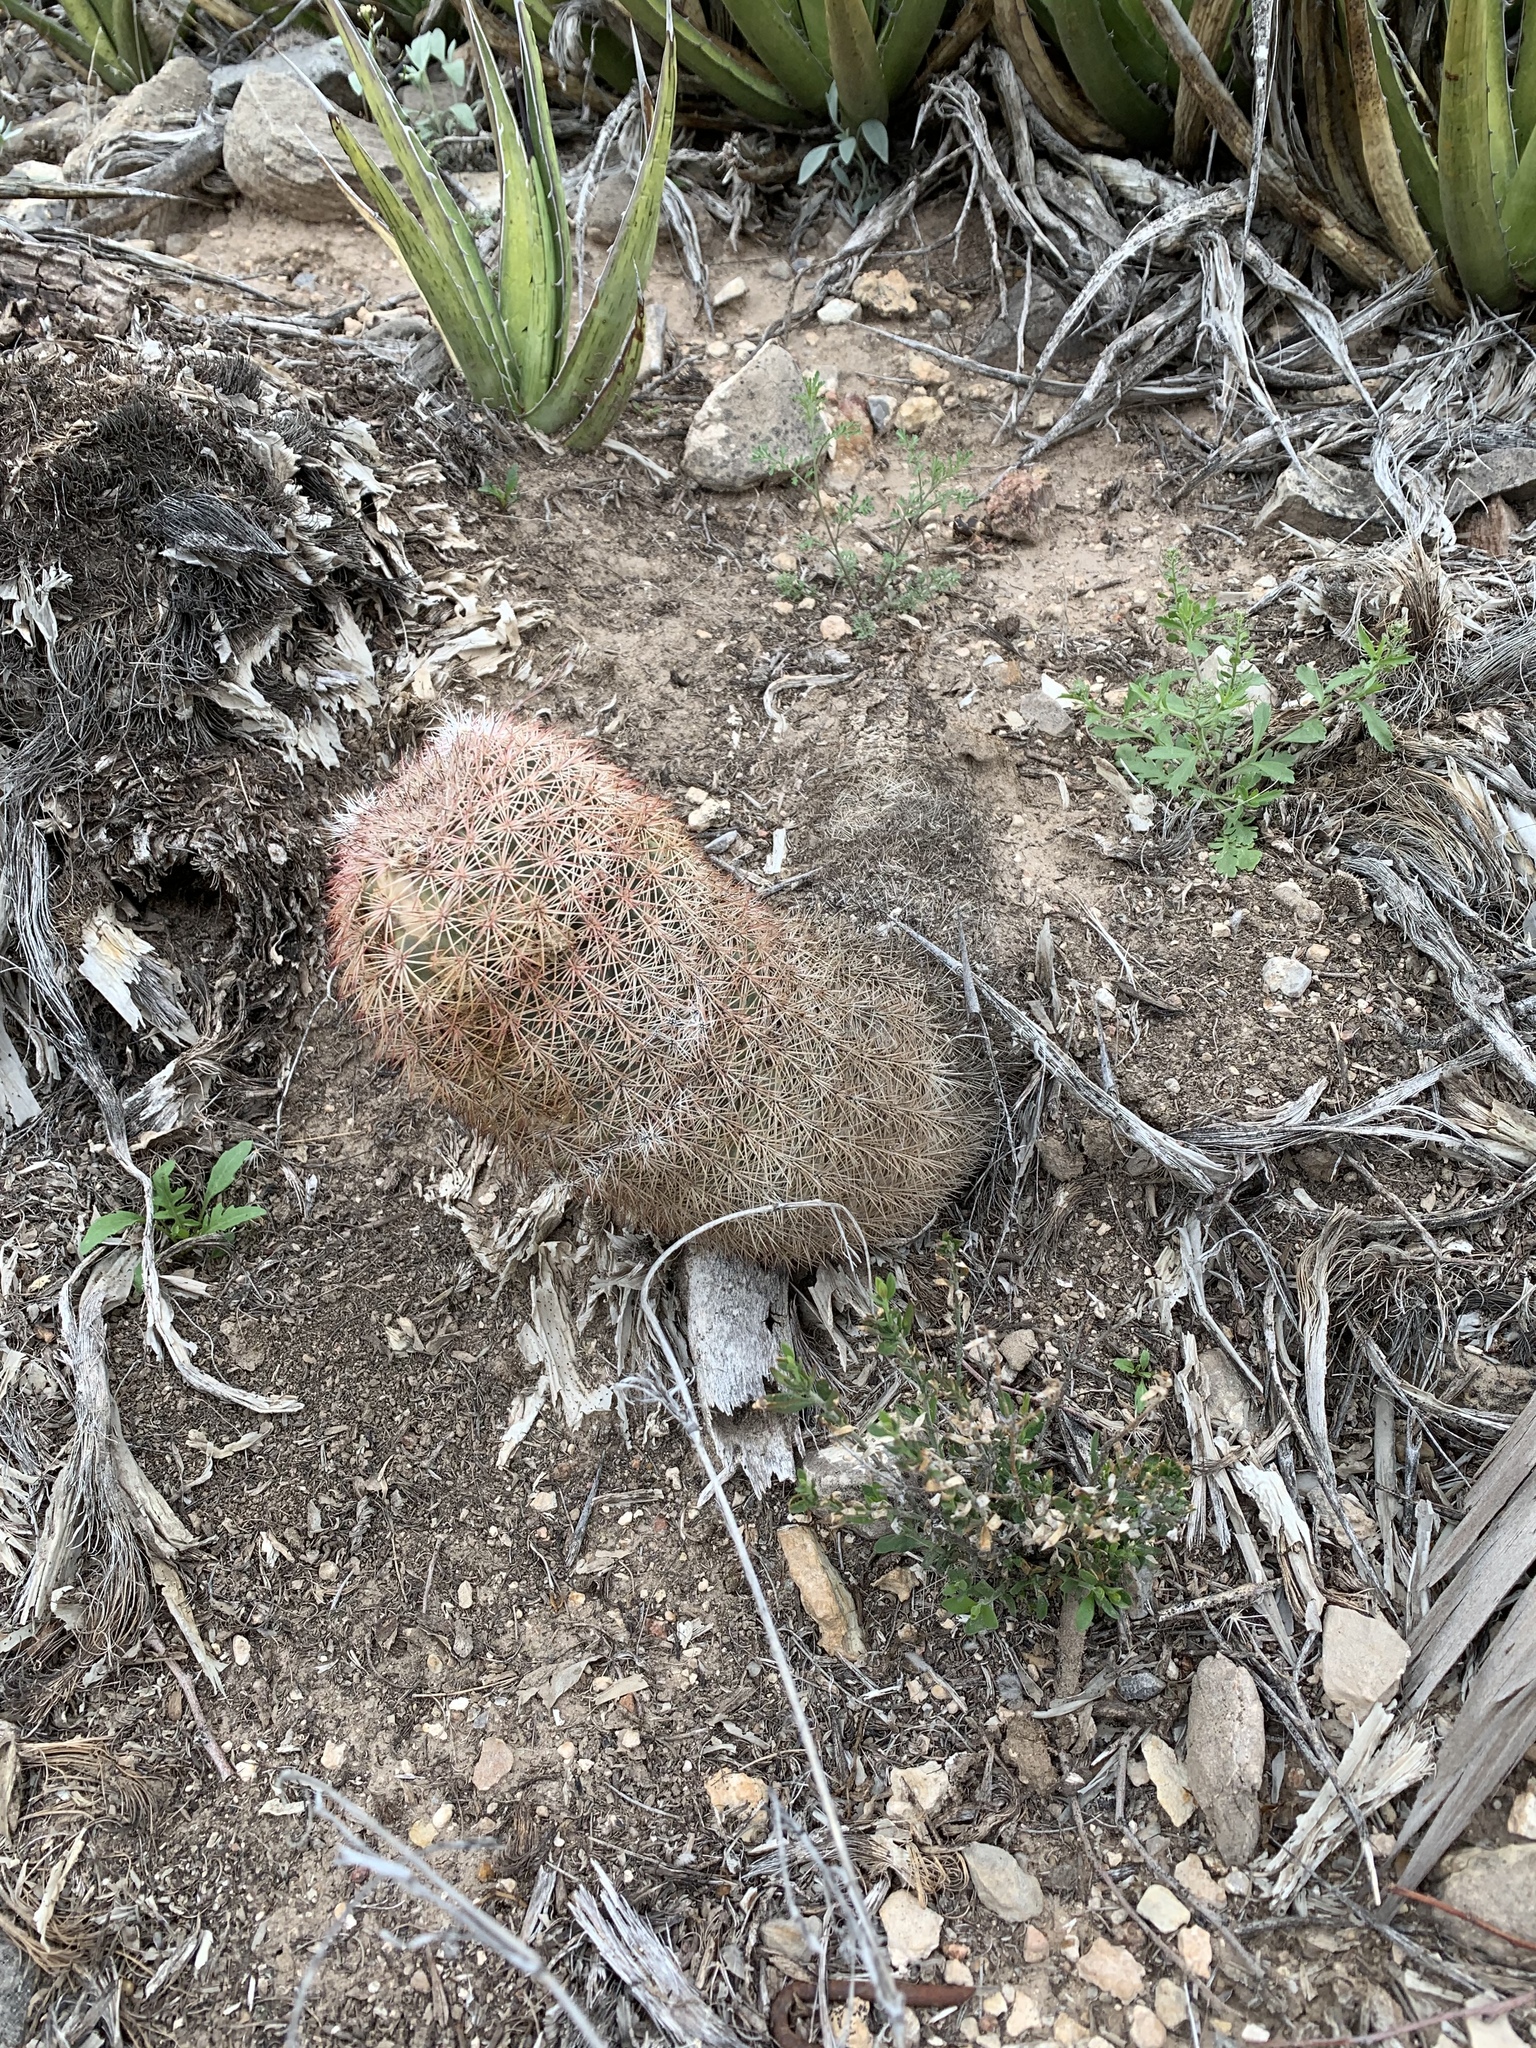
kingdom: Plantae
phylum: Tracheophyta
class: Magnoliopsida
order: Caryophyllales
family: Cactaceae
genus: Echinocereus
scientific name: Echinocereus dasyacanthus
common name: Spiny hedgehog cactus
